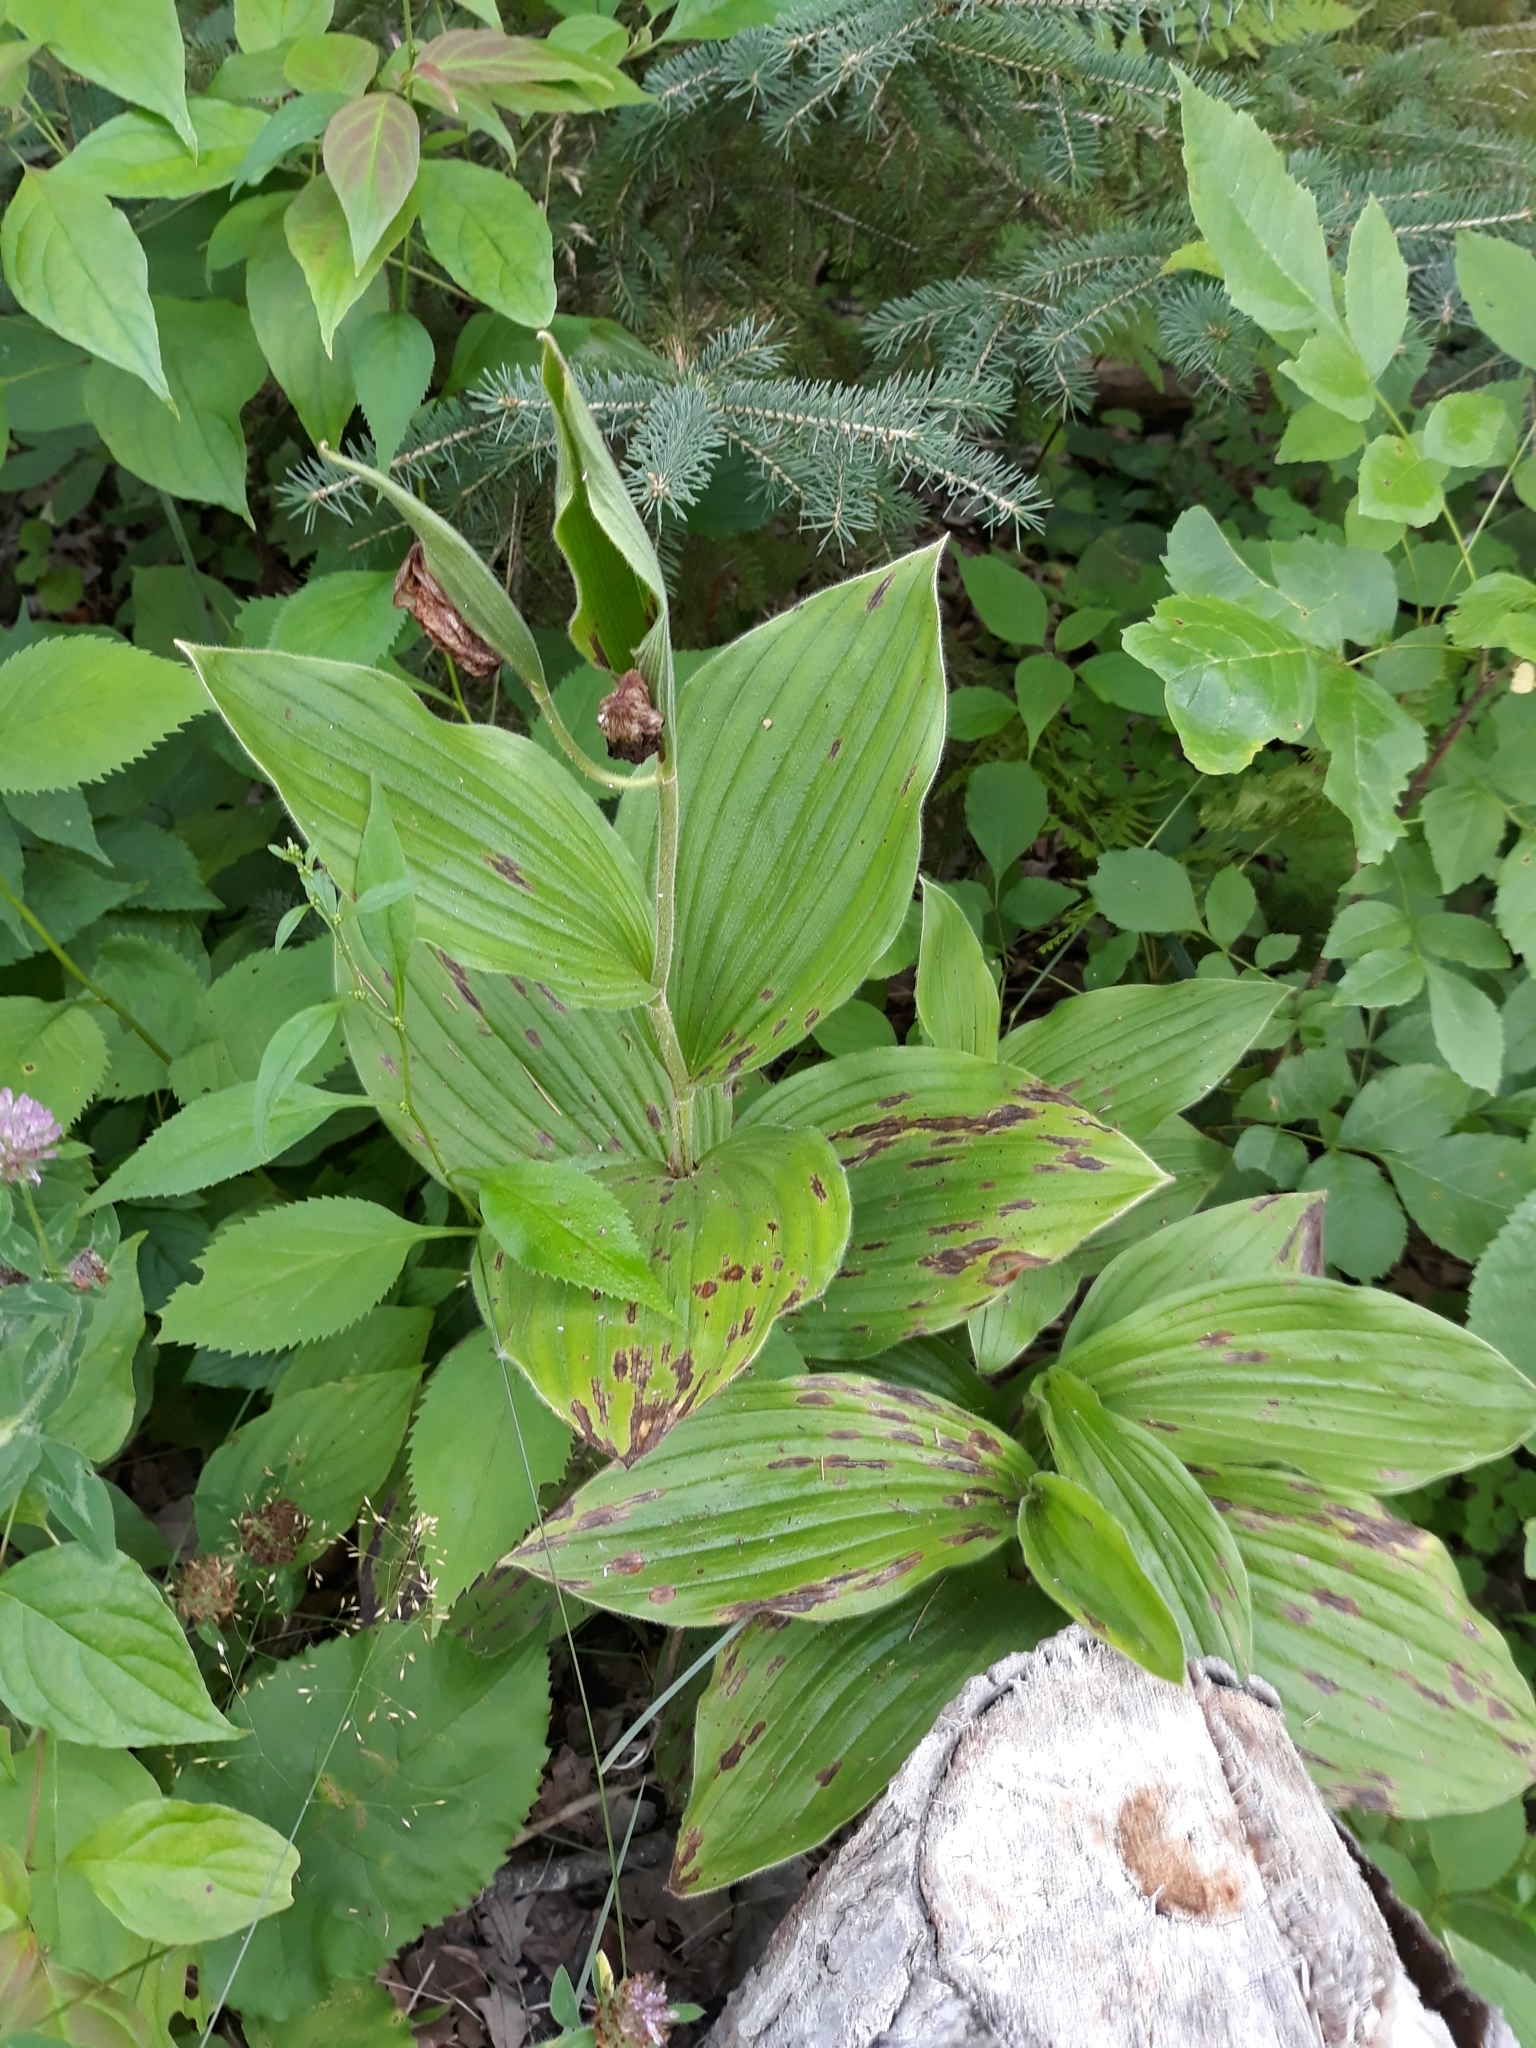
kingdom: Plantae
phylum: Tracheophyta
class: Liliopsida
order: Asparagales
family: Orchidaceae
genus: Cypripedium
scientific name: Cypripedium reginae
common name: Queen lady's-slipper
